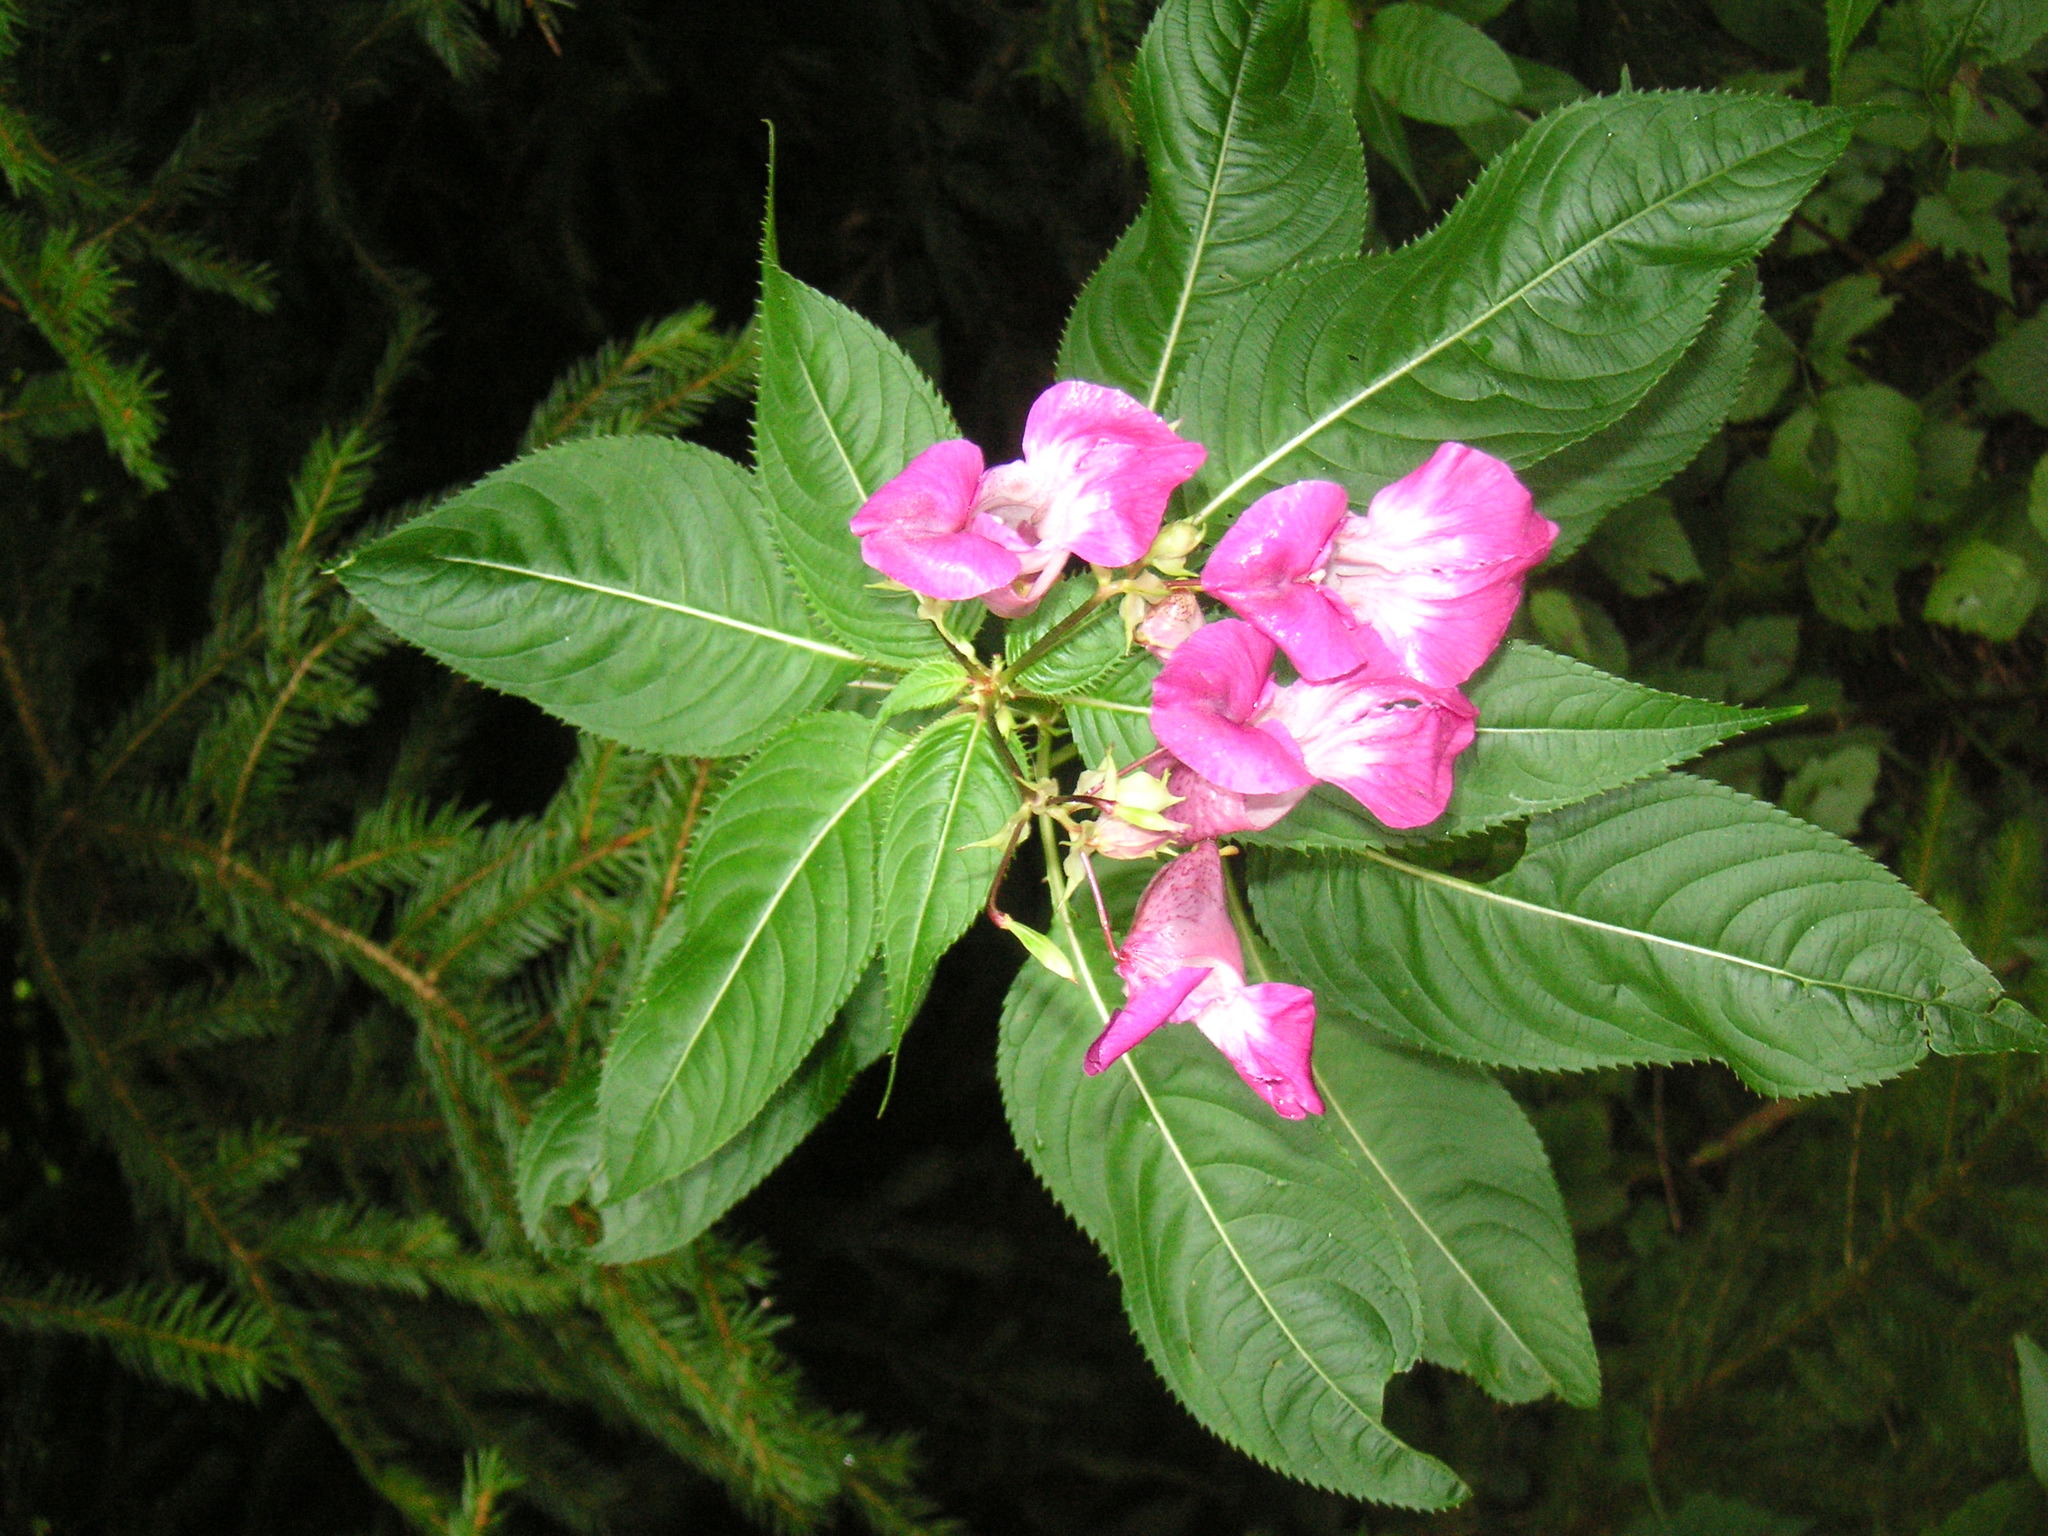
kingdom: Plantae
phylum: Tracheophyta
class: Magnoliopsida
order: Ericales
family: Balsaminaceae
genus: Impatiens
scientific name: Impatiens glandulifera
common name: Himalayan balsam
